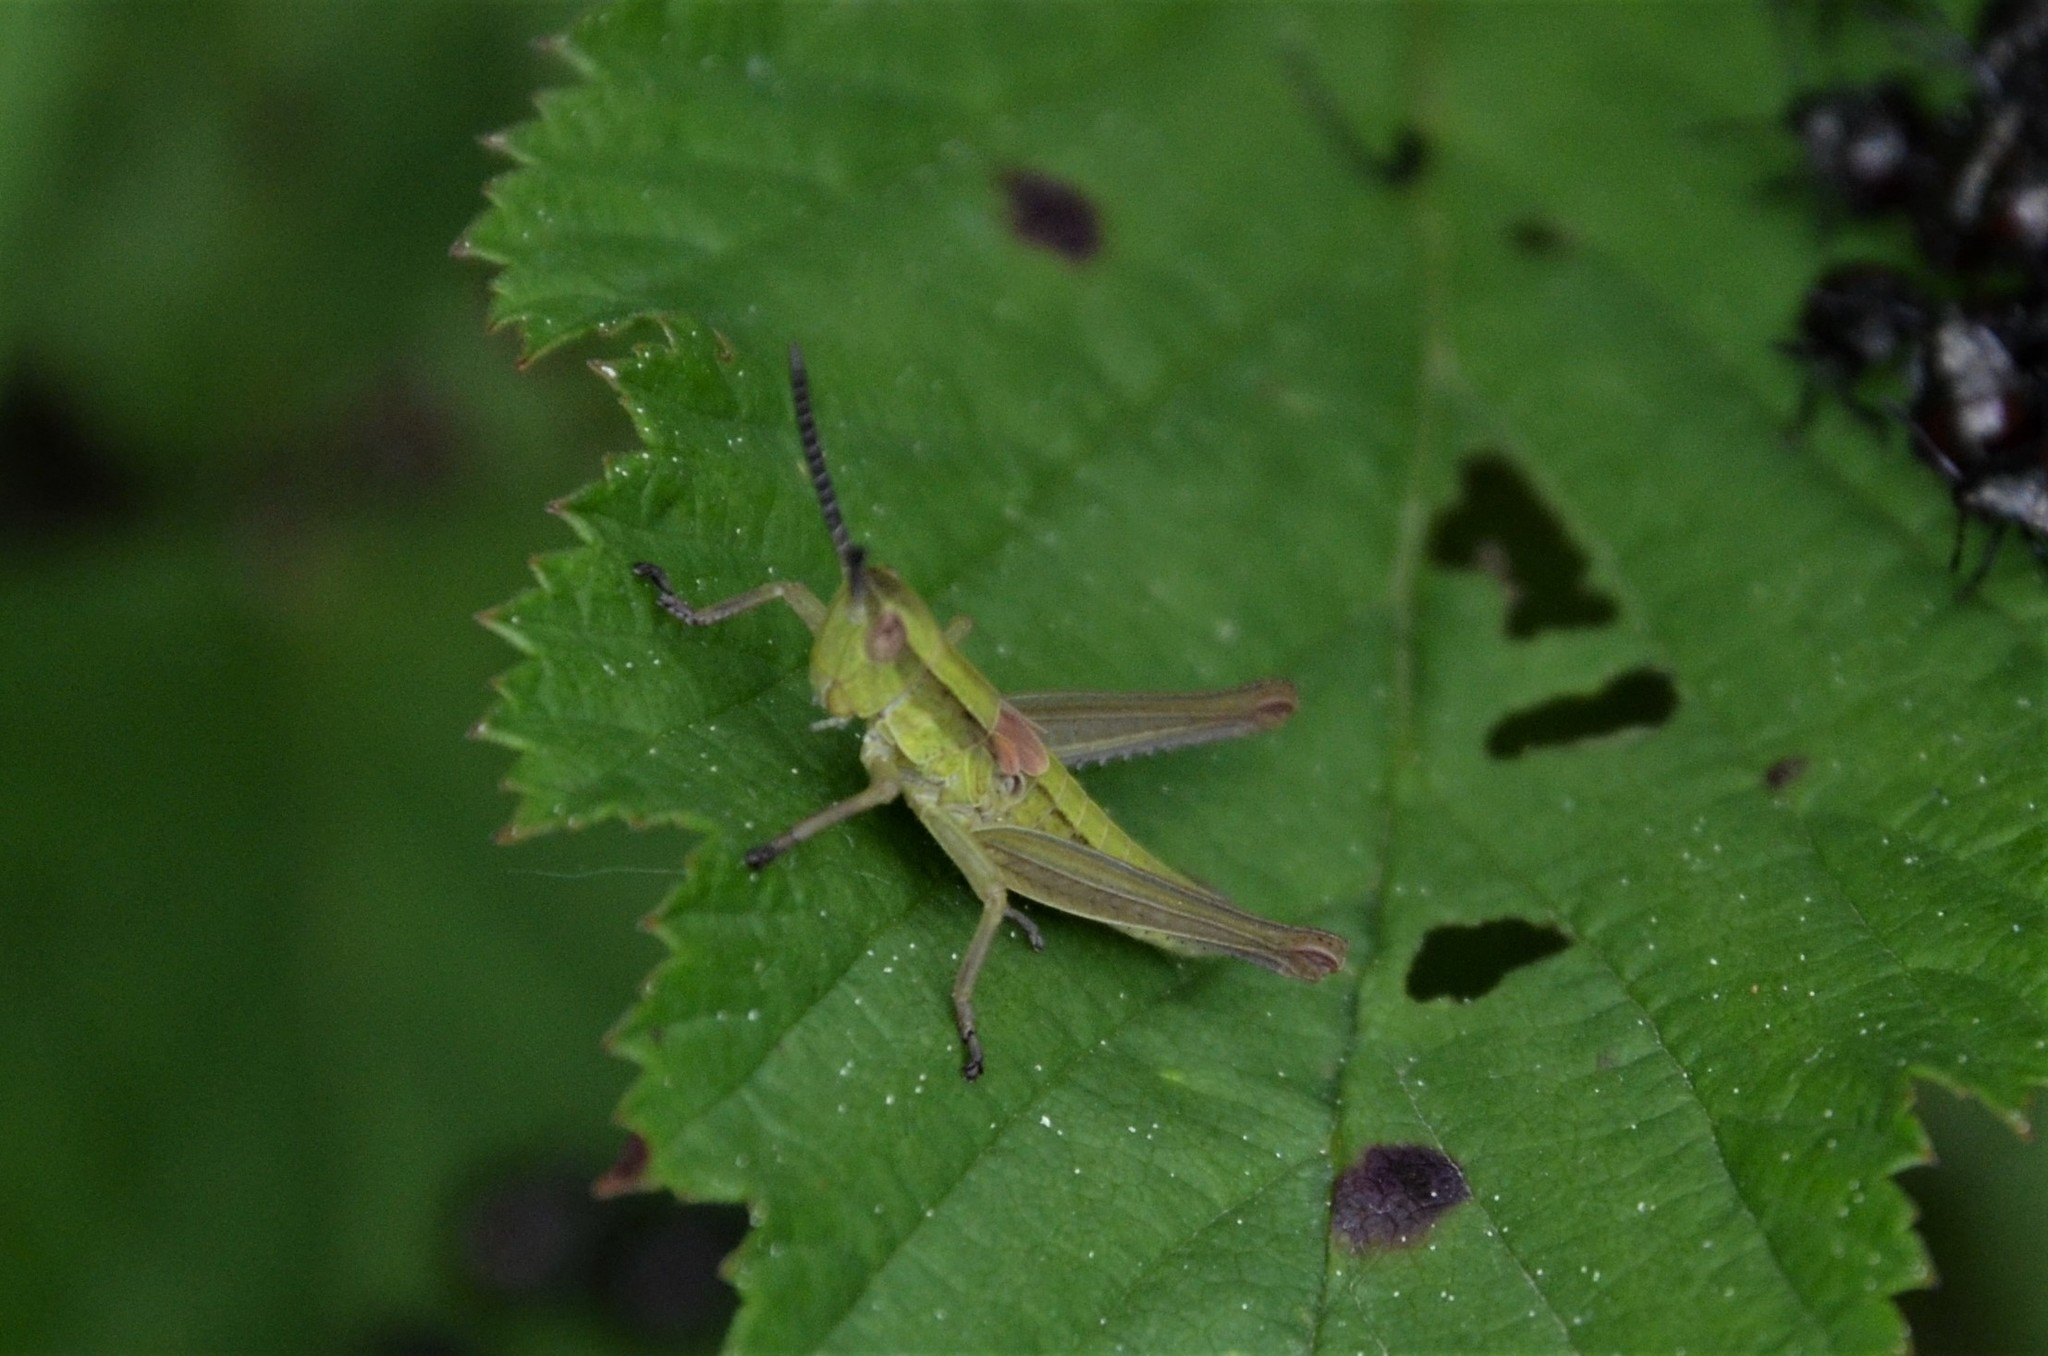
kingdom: Animalia
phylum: Arthropoda
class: Insecta
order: Orthoptera
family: Acrididae
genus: Euthystira
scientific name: Euthystira brachyptera
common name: Small gold grasshopper
